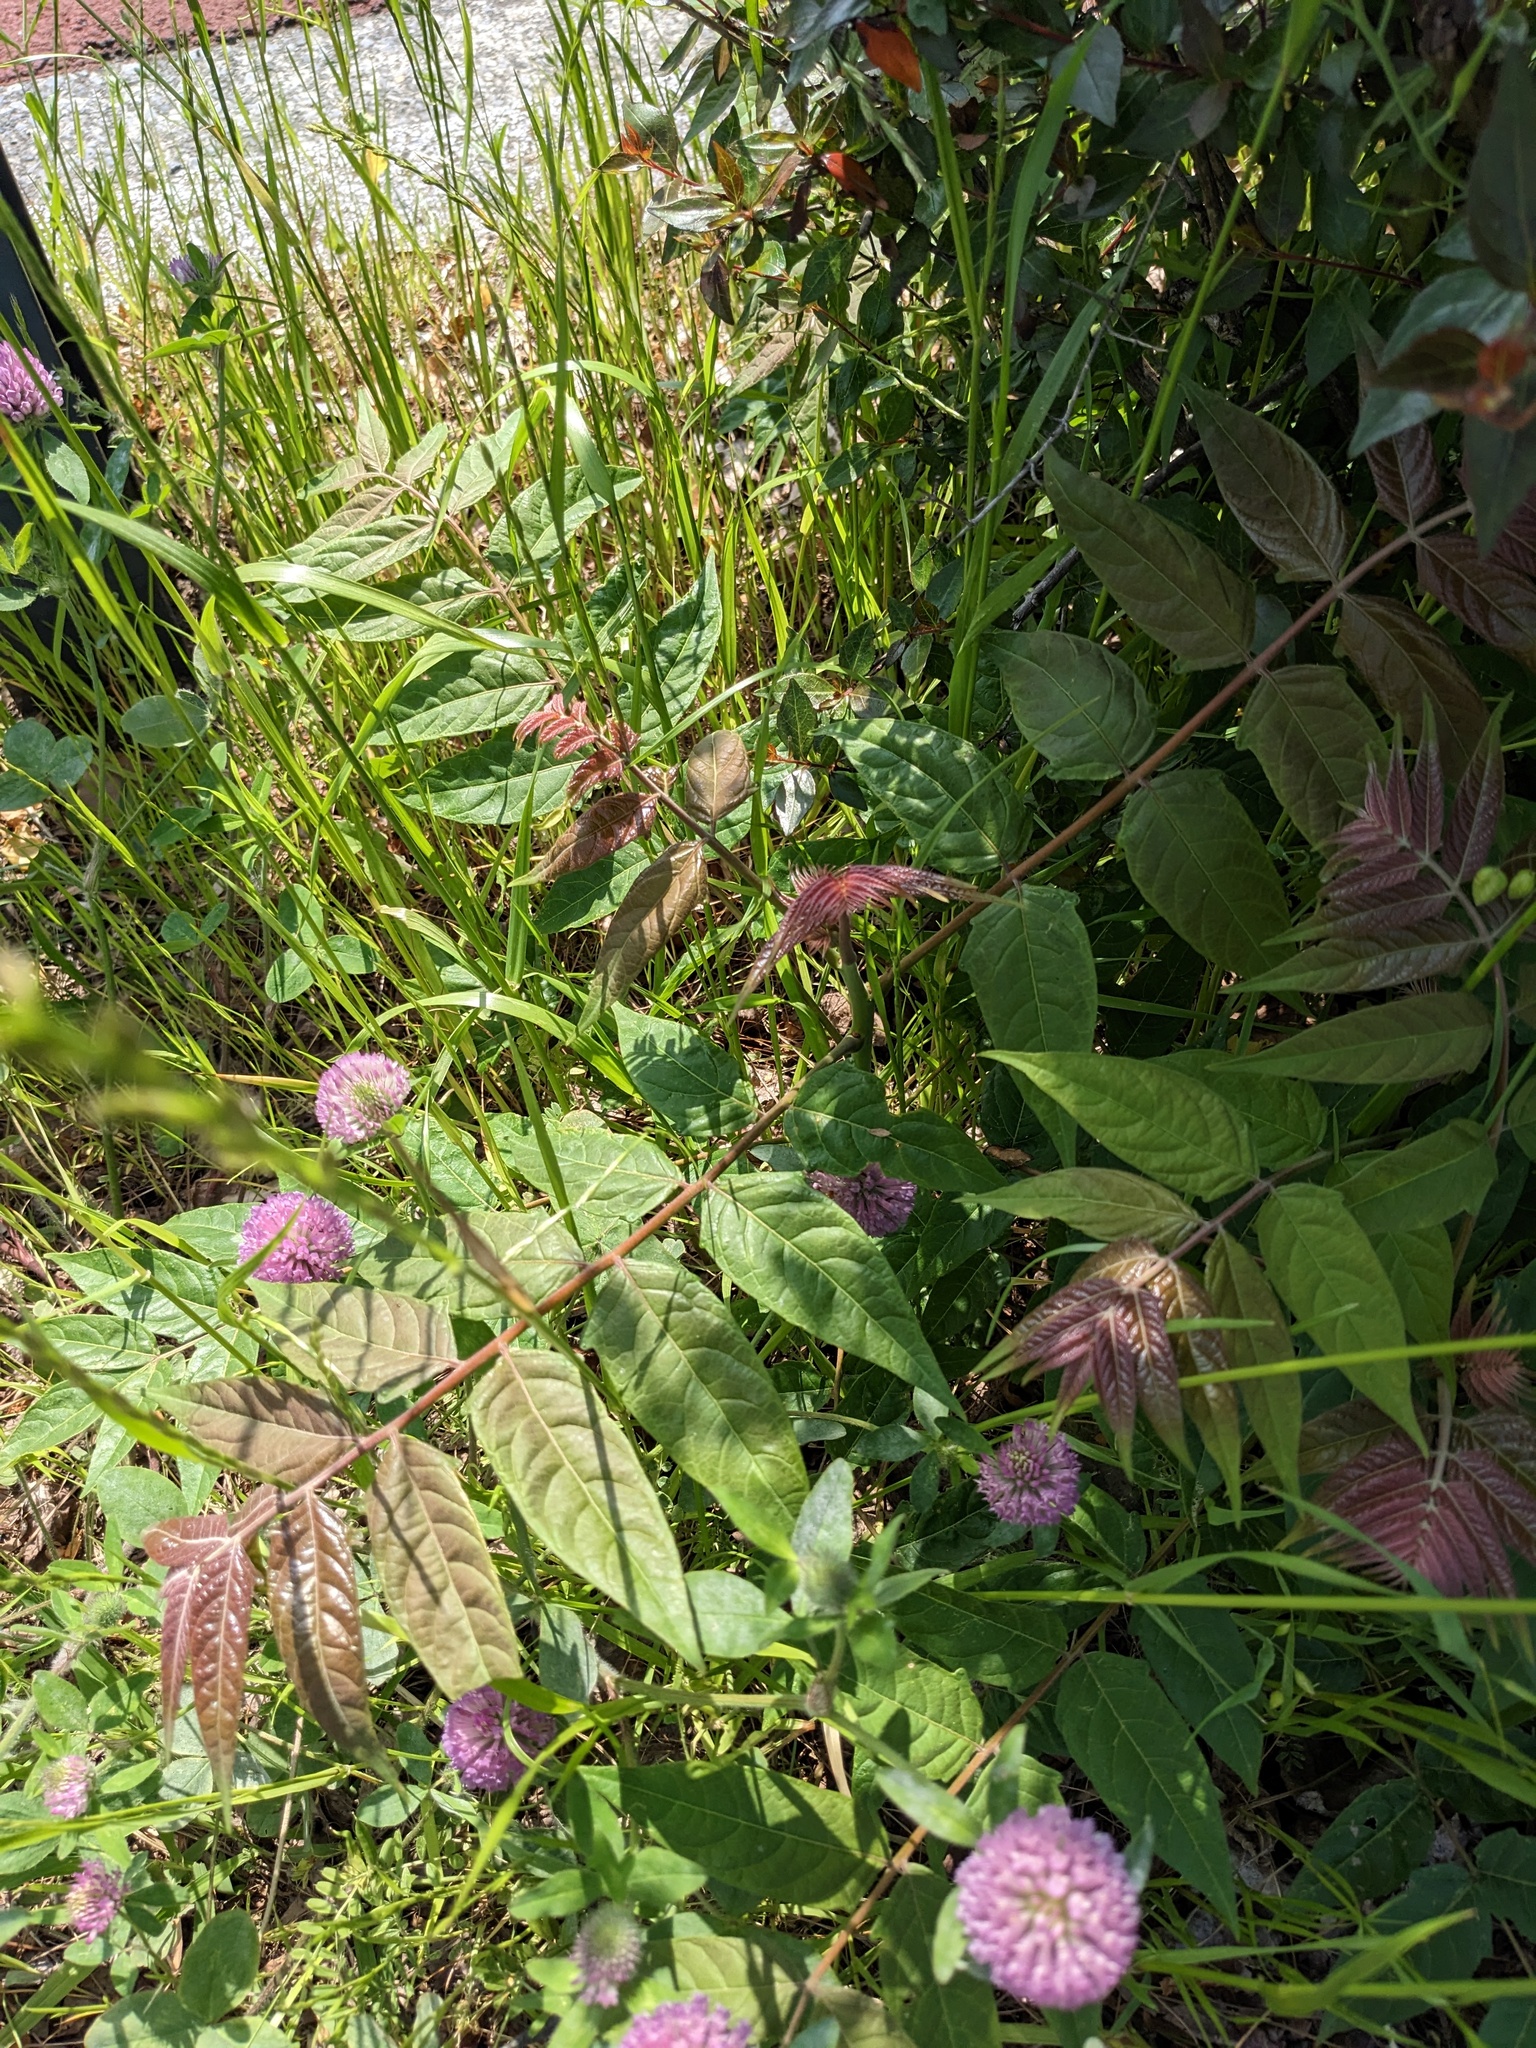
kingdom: Plantae
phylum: Tracheophyta
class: Magnoliopsida
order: Sapindales
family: Simaroubaceae
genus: Ailanthus
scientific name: Ailanthus altissima
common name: Tree-of-heaven
